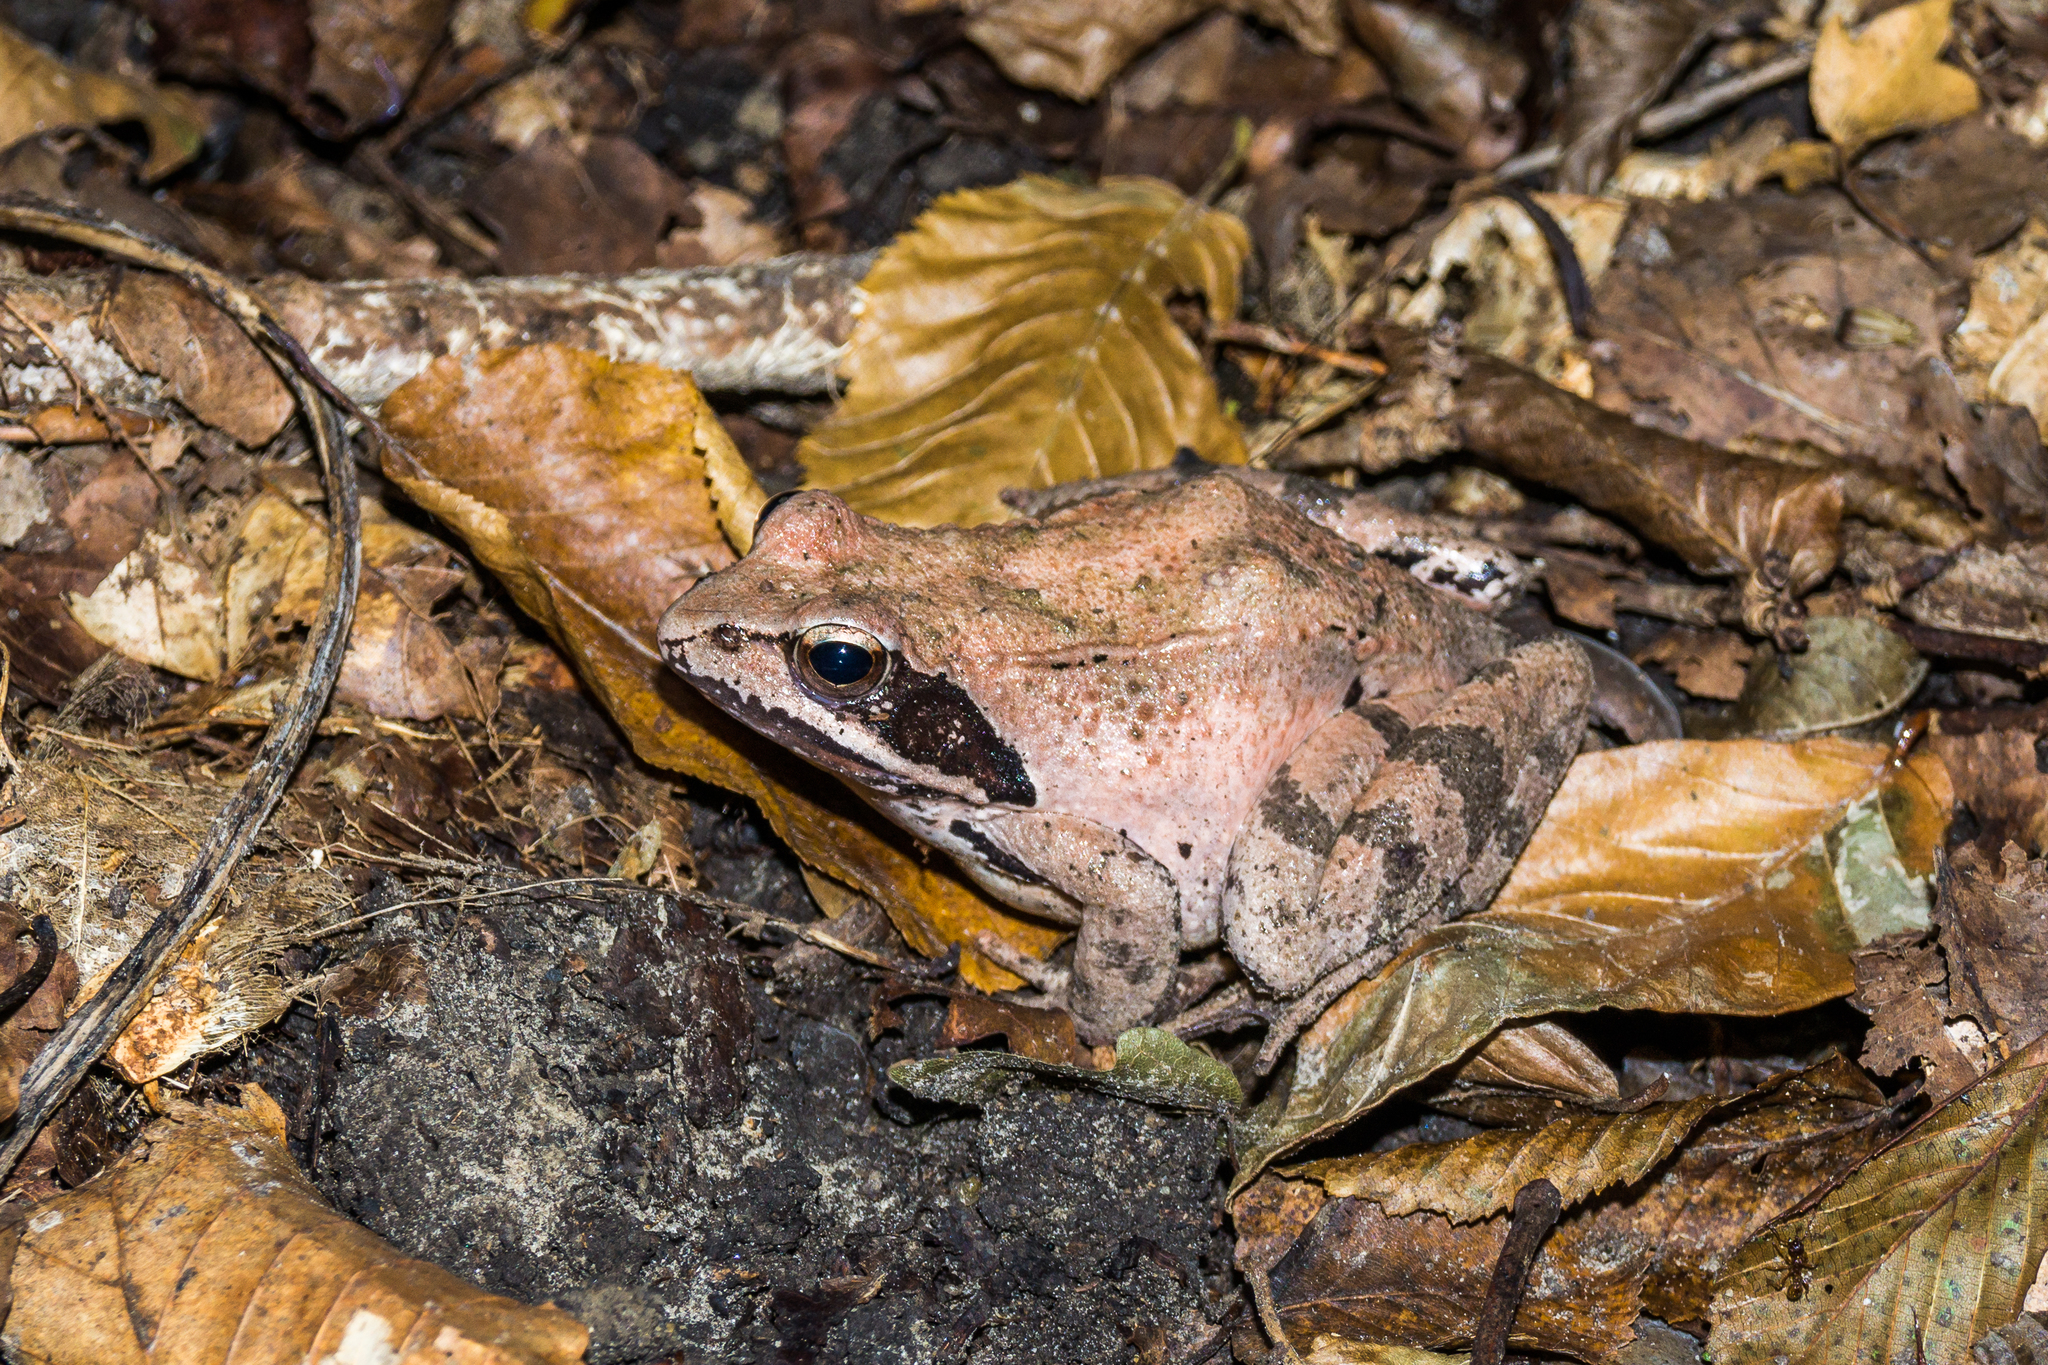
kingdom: Animalia
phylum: Chordata
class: Amphibia
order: Anura
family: Ranidae
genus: Rana
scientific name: Rana macrocnemis
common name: Banded frog
